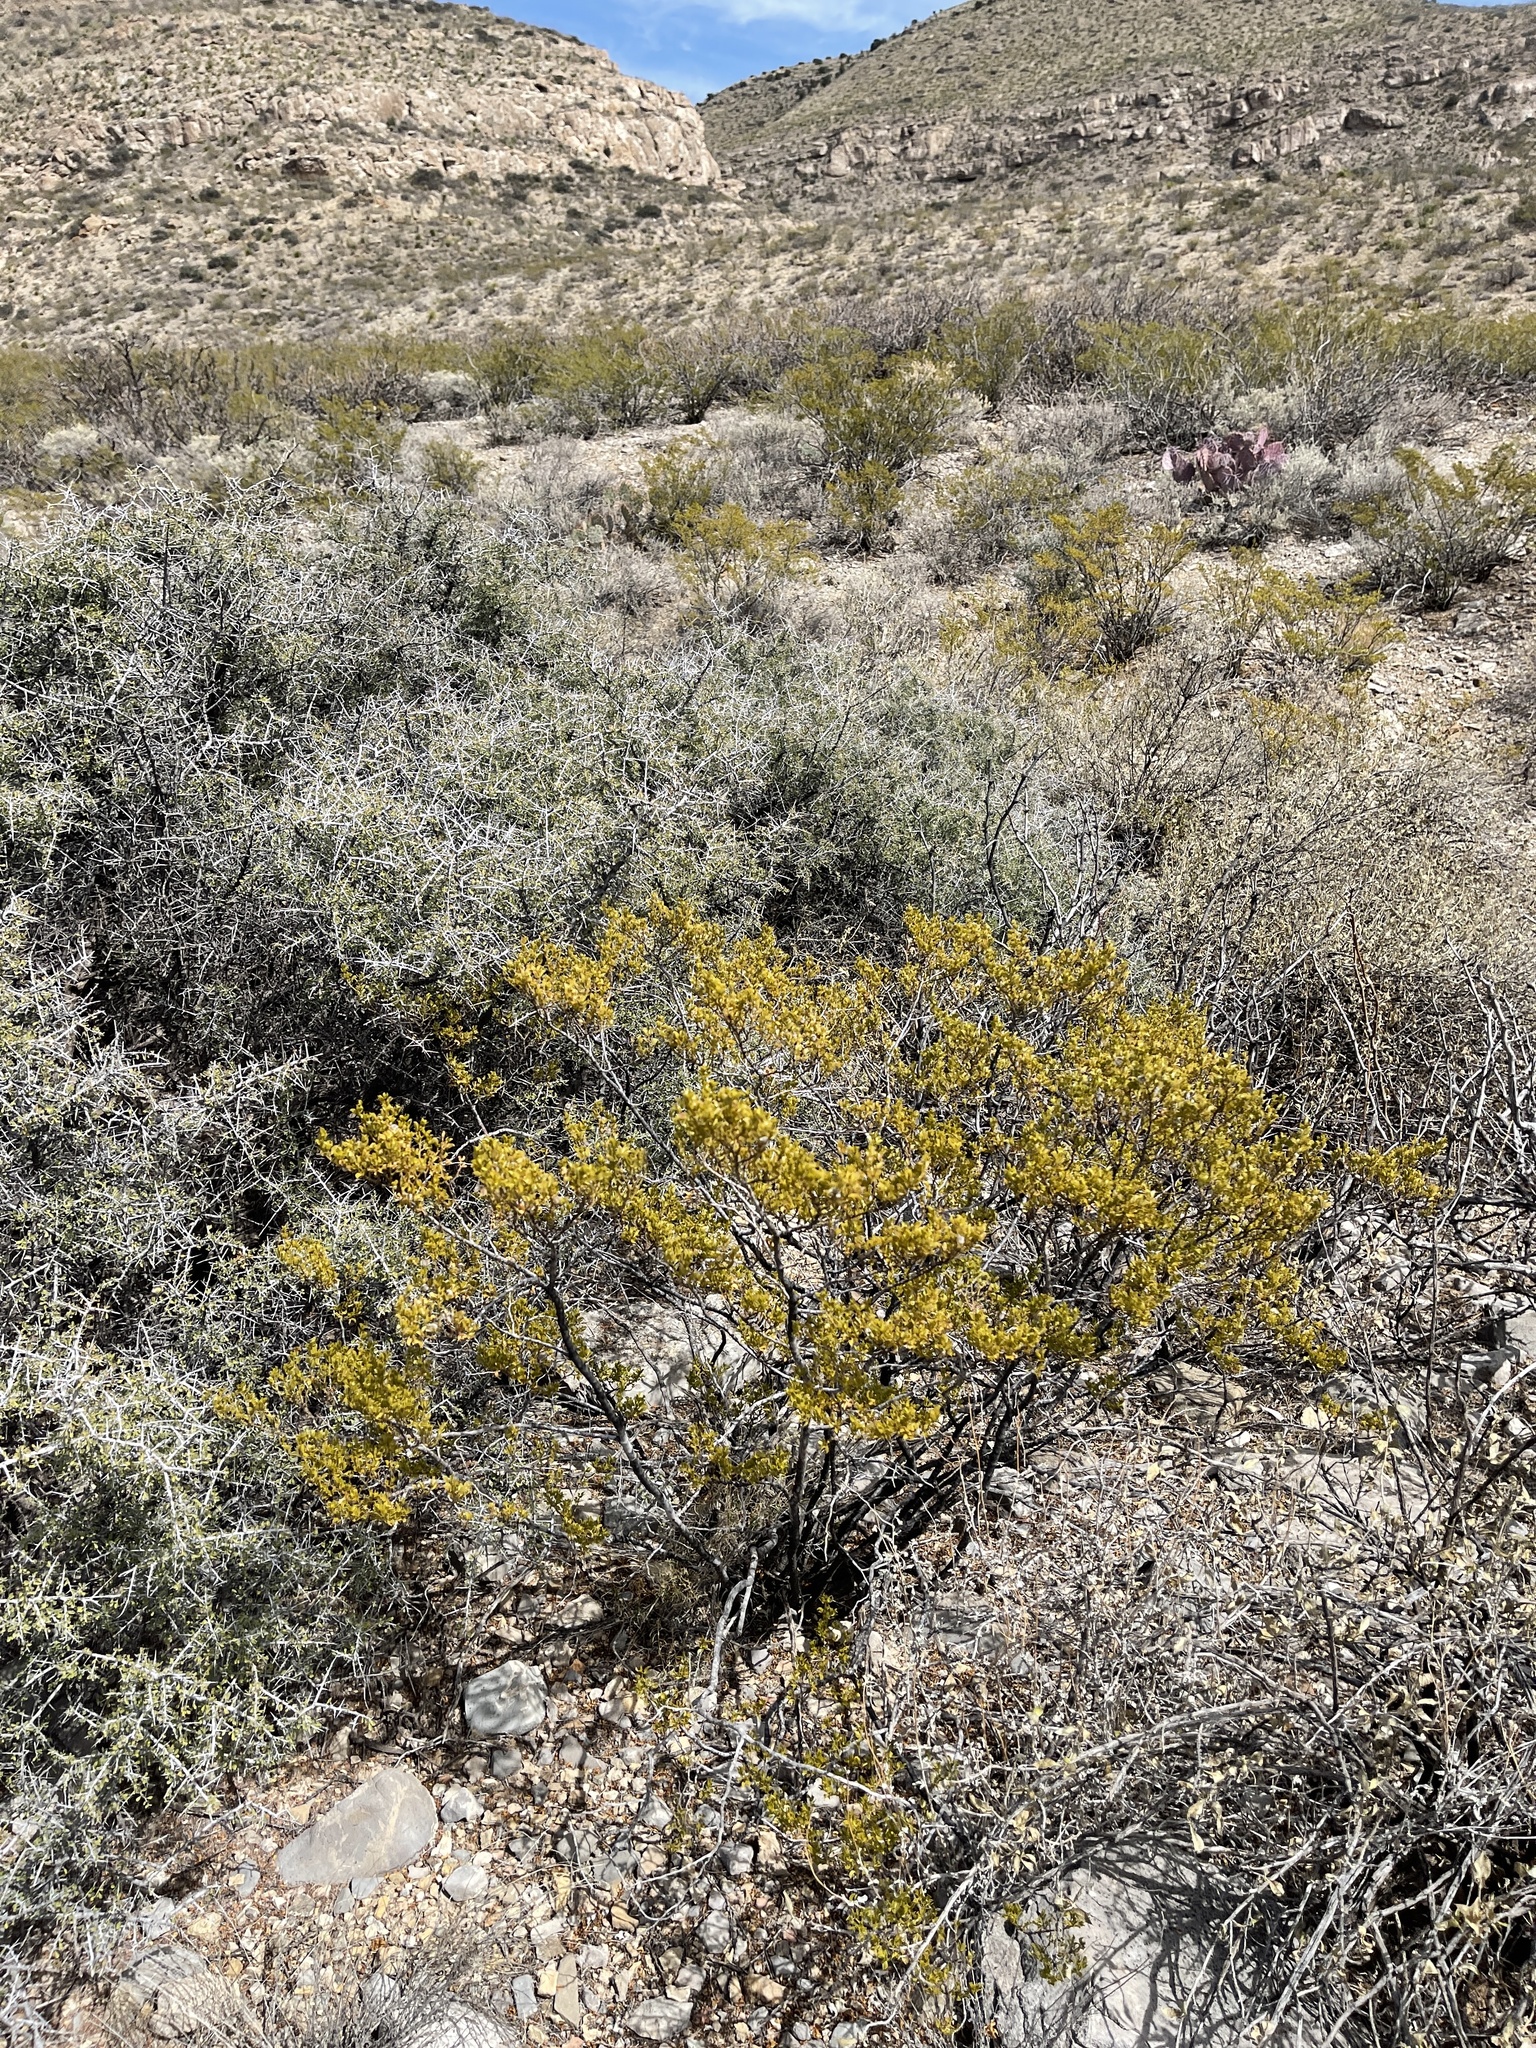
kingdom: Plantae
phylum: Tracheophyta
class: Magnoliopsida
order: Zygophyllales
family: Zygophyllaceae
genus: Larrea
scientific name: Larrea tridentata
